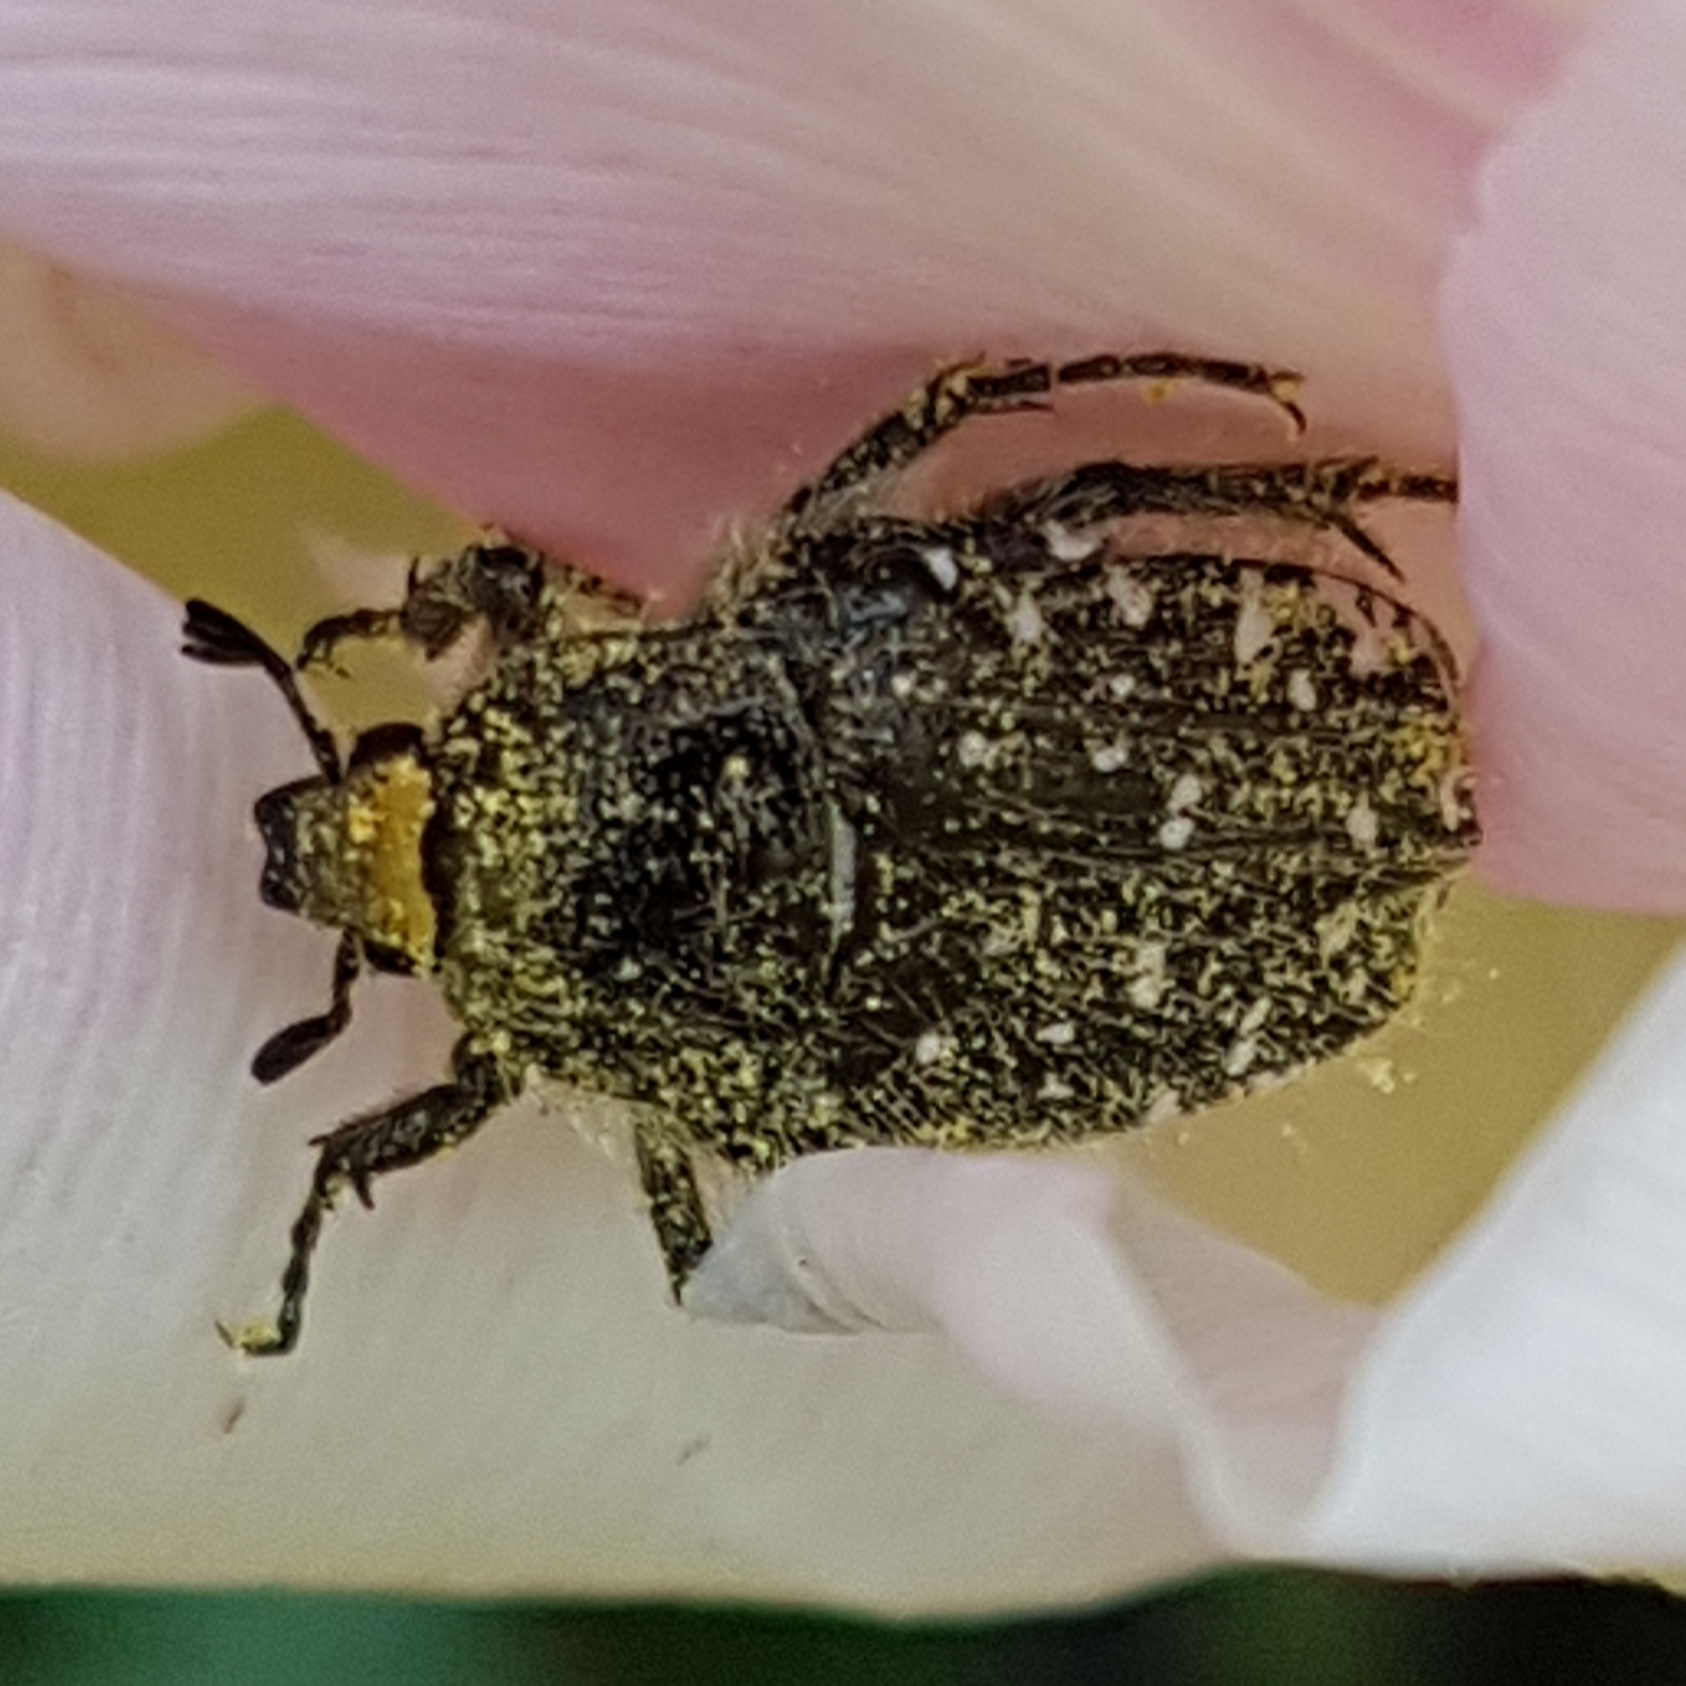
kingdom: Animalia
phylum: Arthropoda
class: Insecta
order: Coleoptera
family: Scarabaeidae
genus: Oxythyrea
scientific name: Oxythyrea funesta
